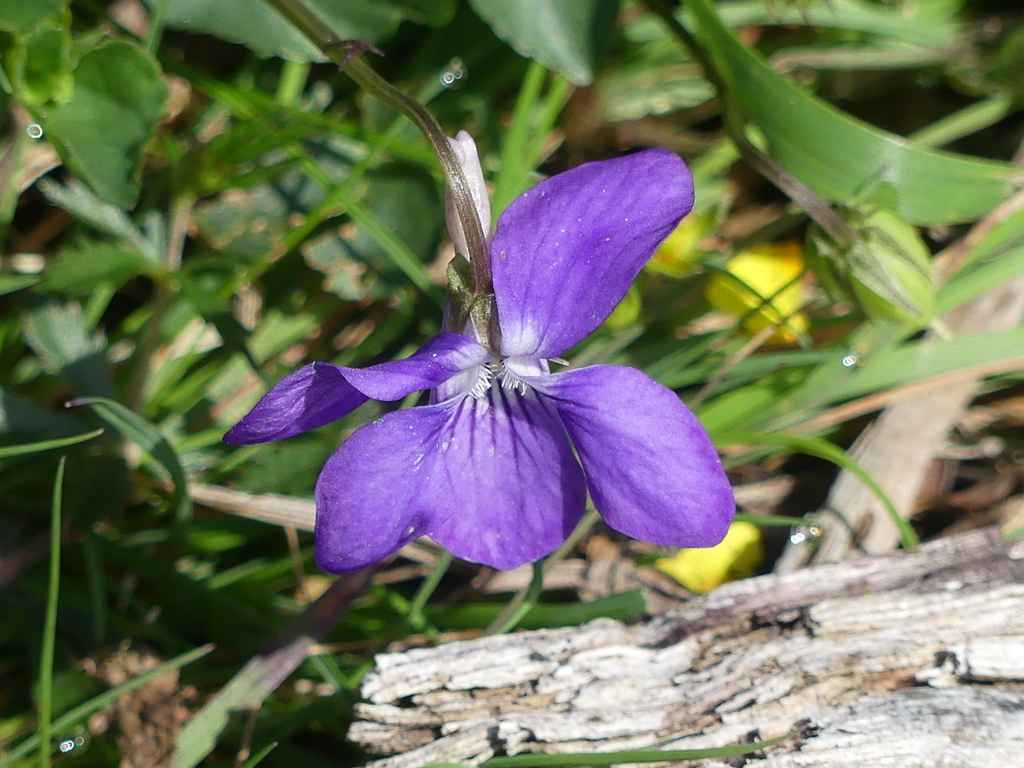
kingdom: Plantae
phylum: Tracheophyta
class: Magnoliopsida
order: Malpighiales
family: Violaceae
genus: Viola
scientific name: Viola riviniana
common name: Common dog-violet
